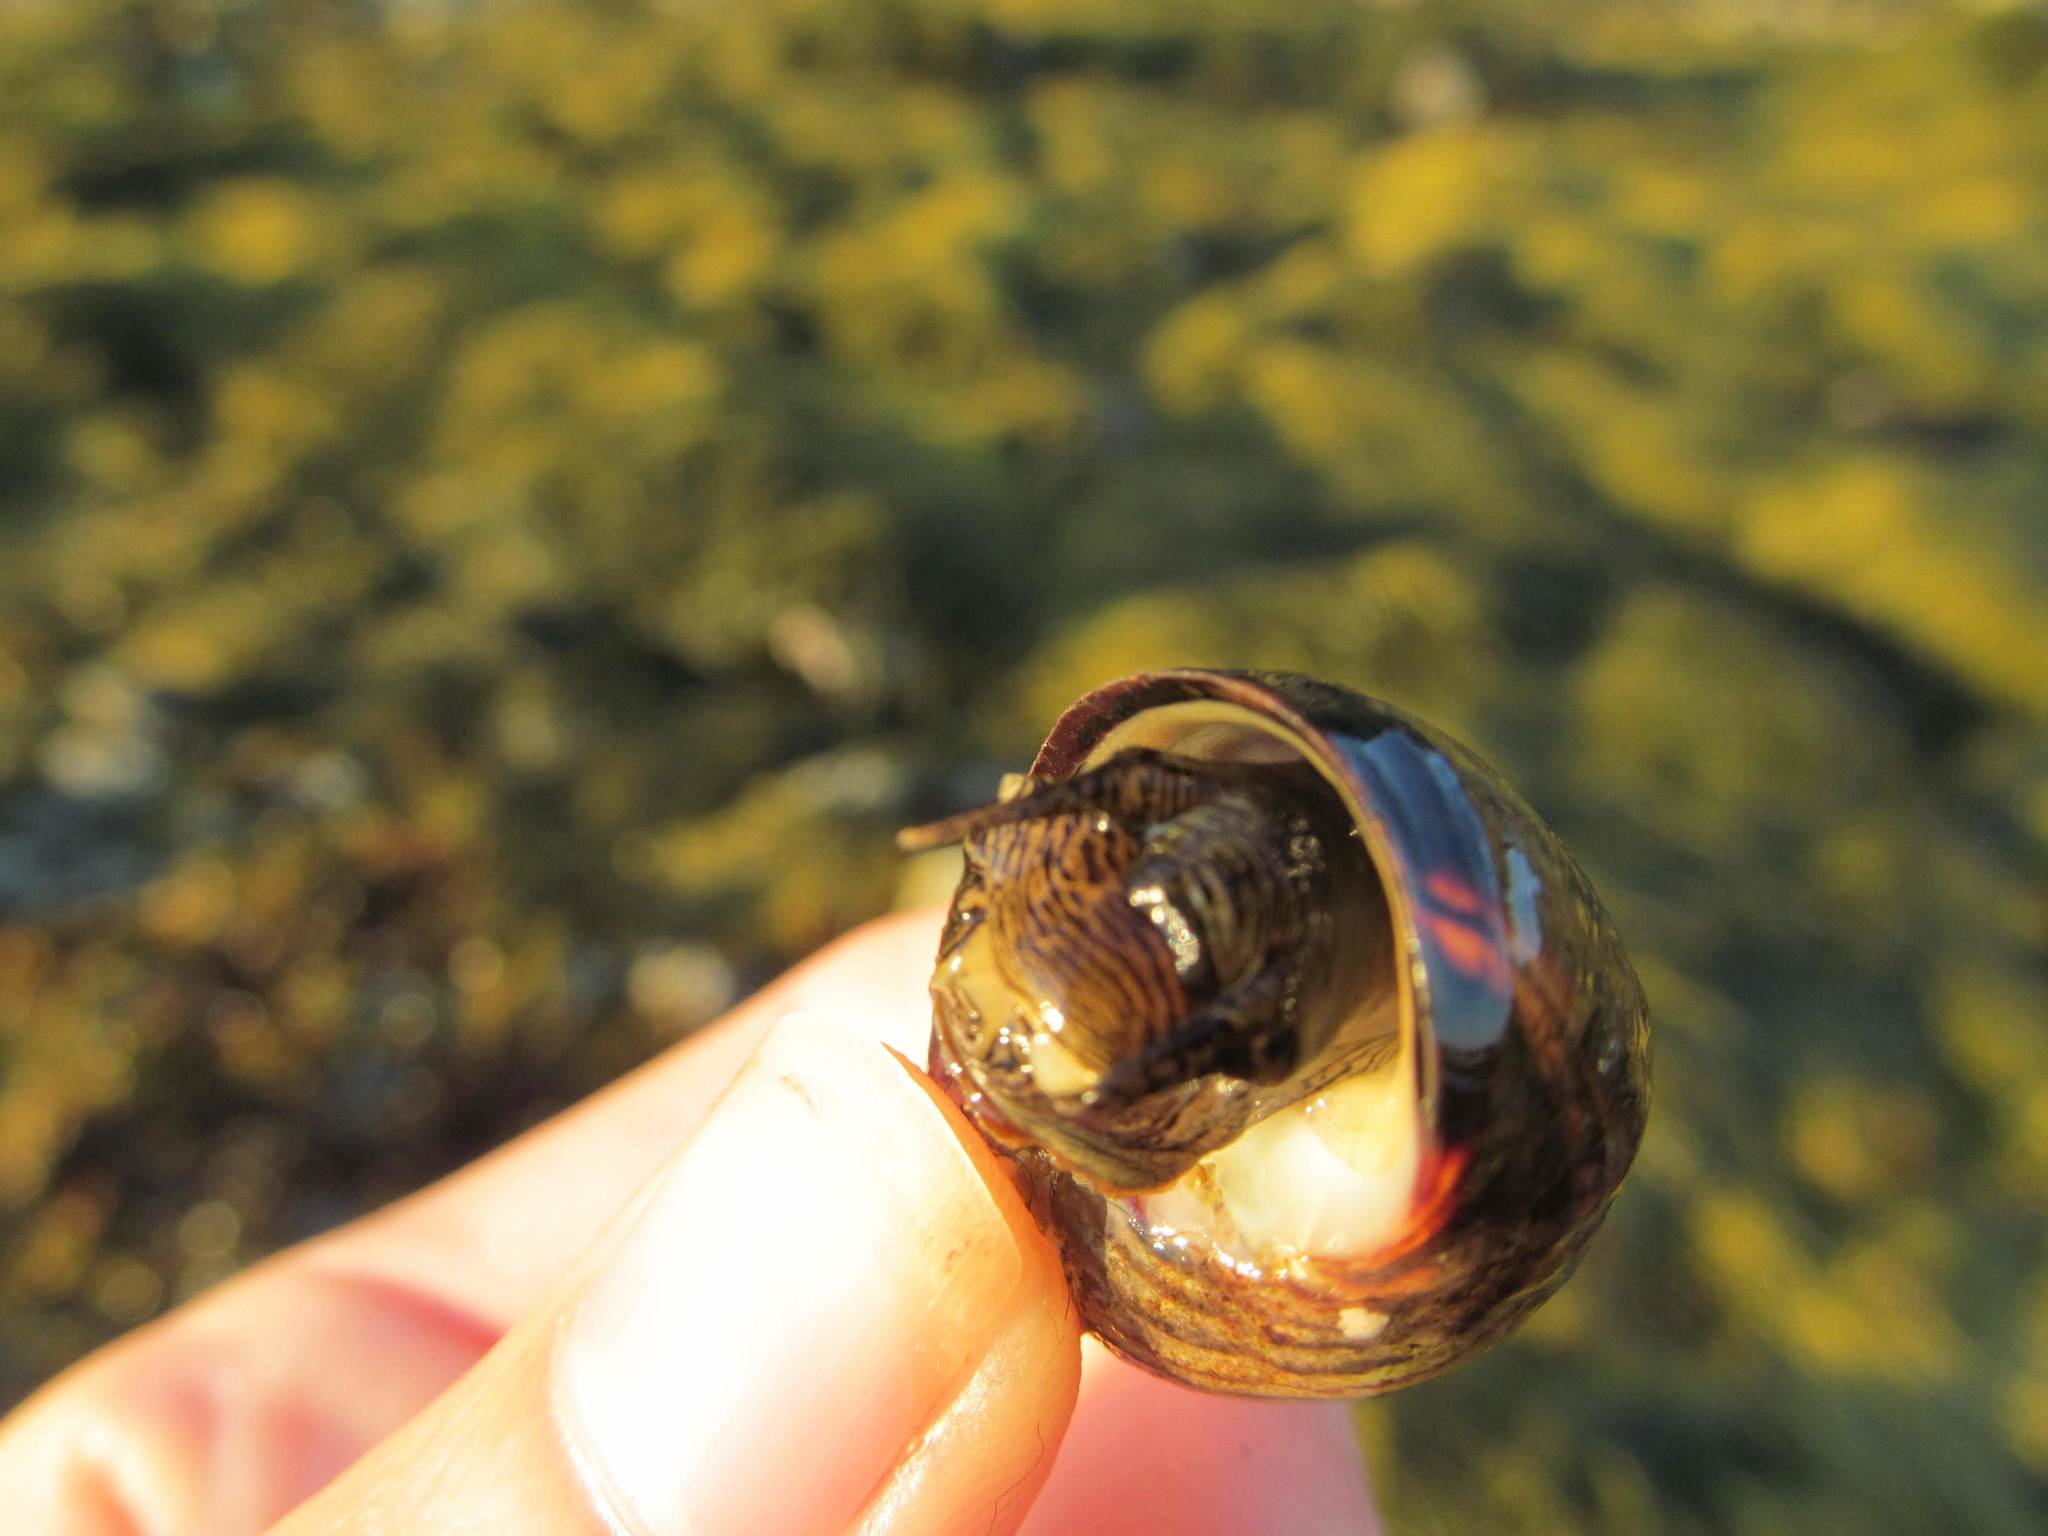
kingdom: Animalia
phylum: Mollusca
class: Gastropoda
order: Littorinimorpha
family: Littorinidae
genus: Littorina
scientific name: Littorina littorea
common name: Common periwinkle
